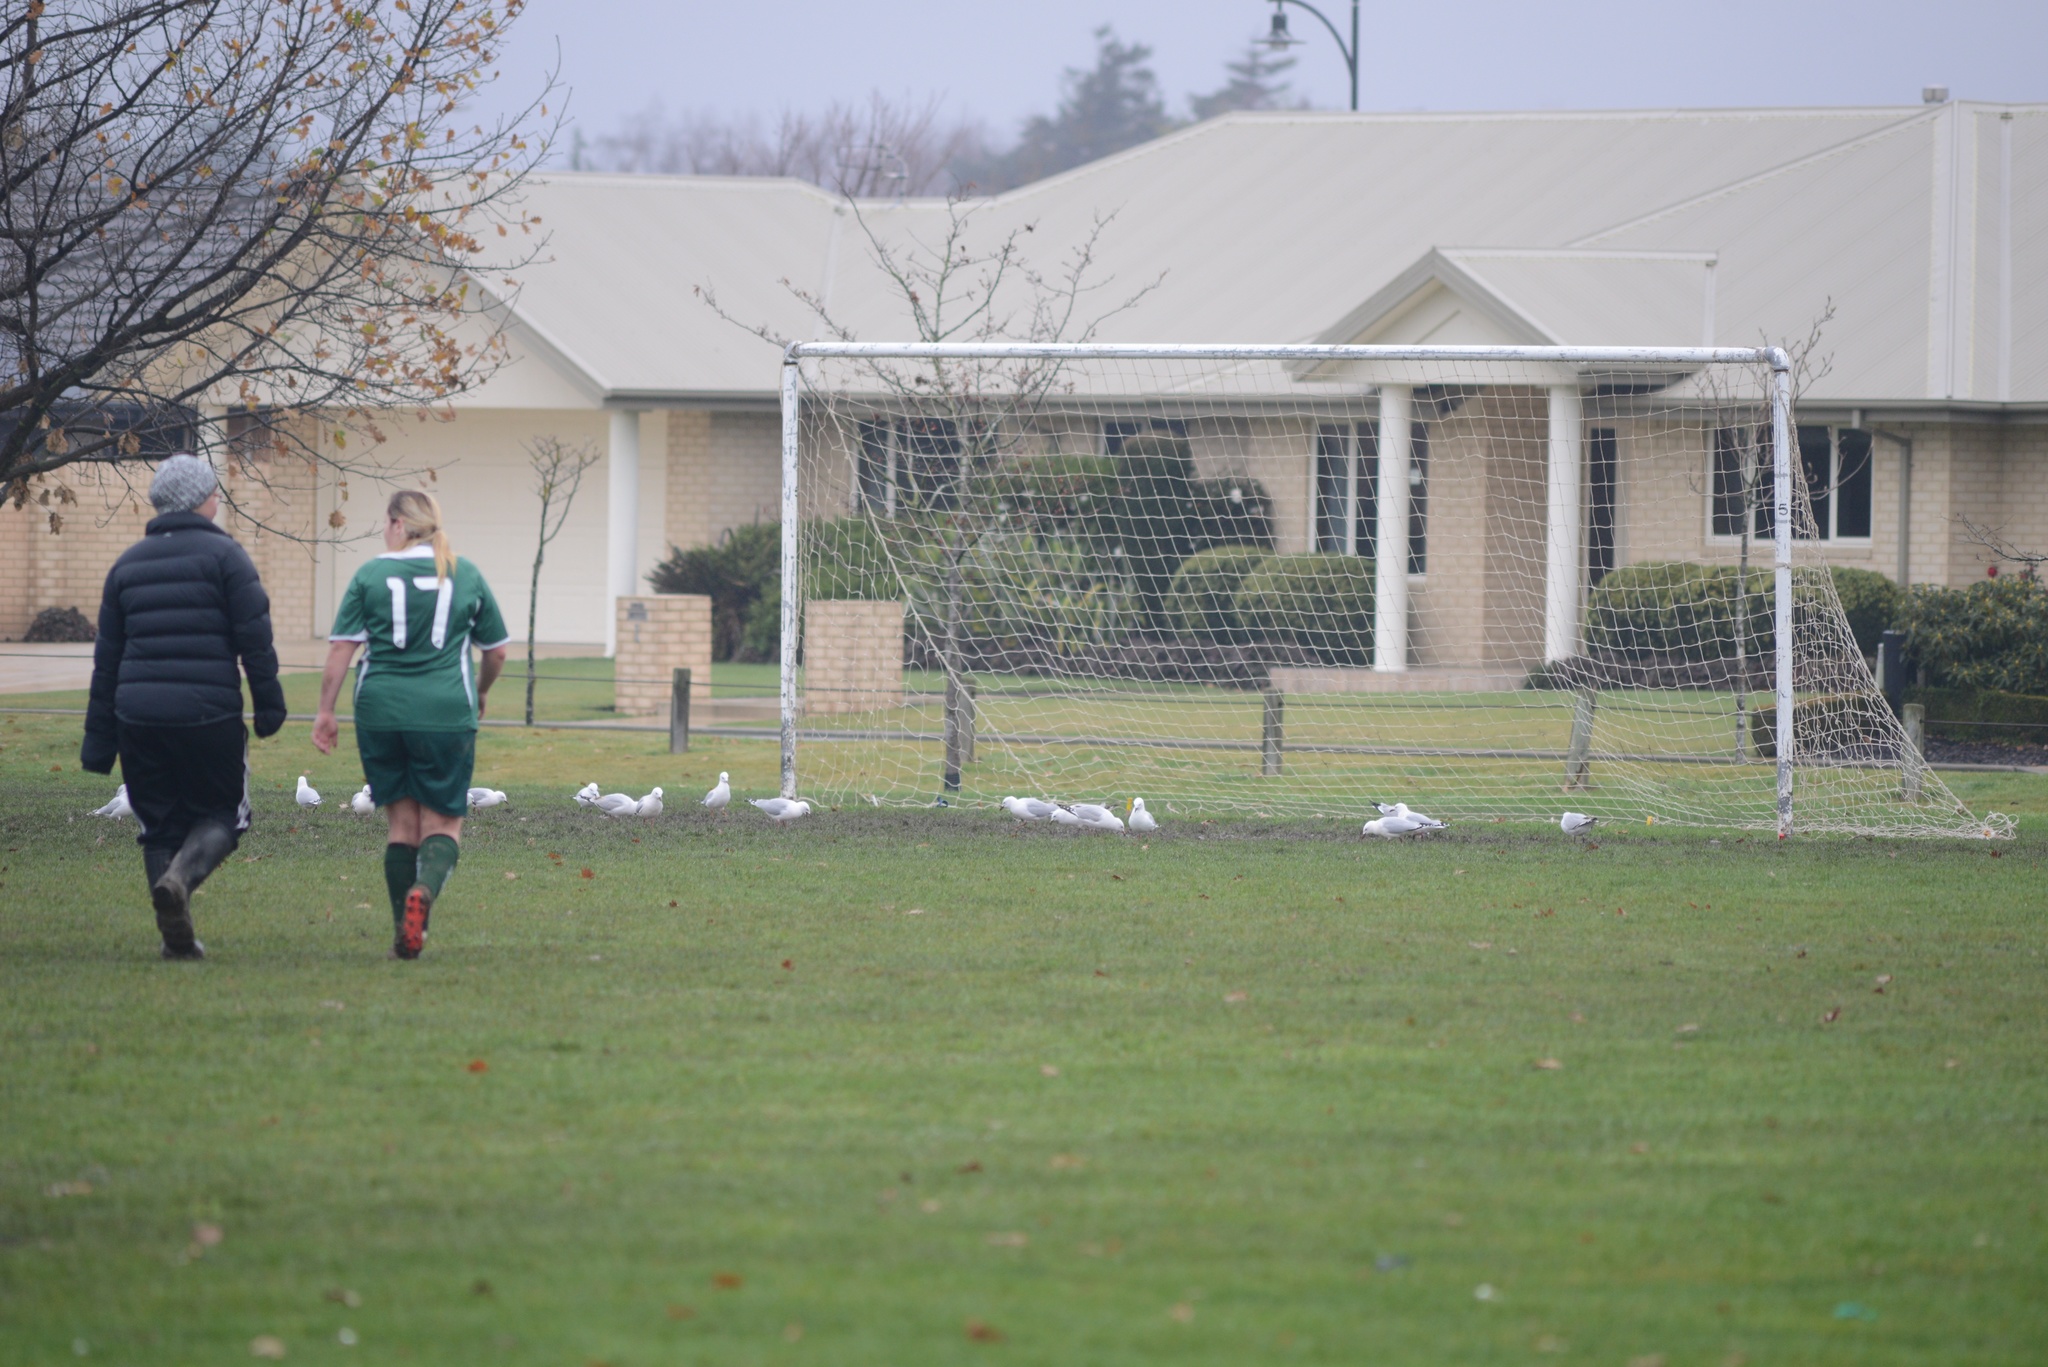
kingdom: Animalia
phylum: Chordata
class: Aves
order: Charadriiformes
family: Laridae
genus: Chroicocephalus
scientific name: Chroicocephalus novaehollandiae
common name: Silver gull
